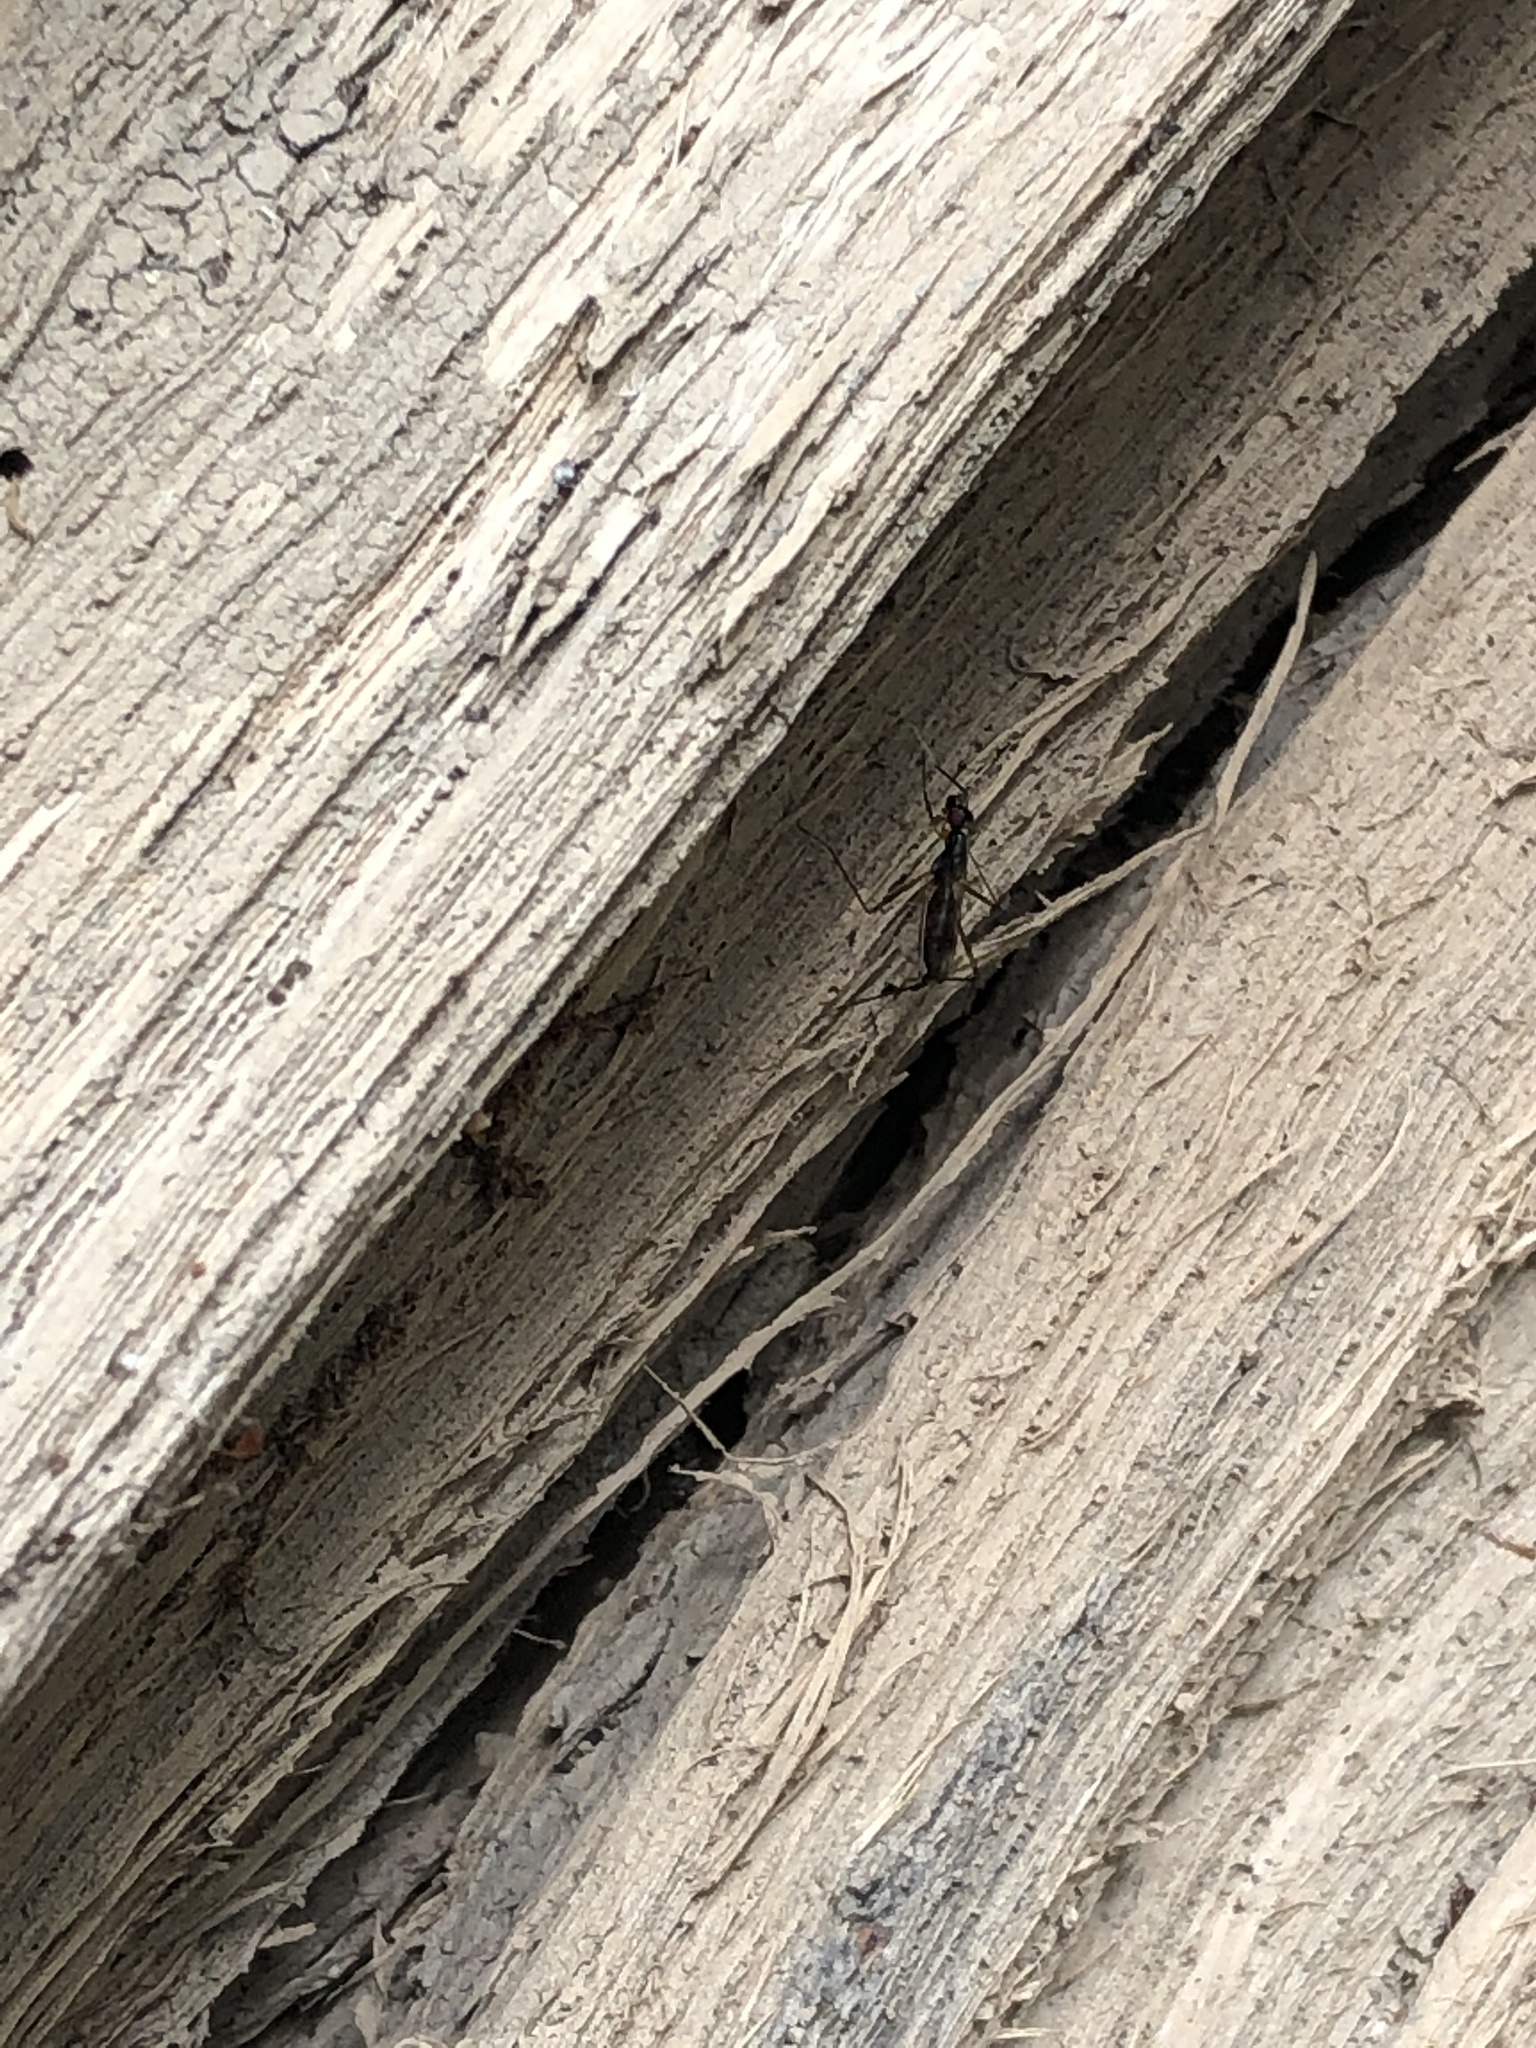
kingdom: Animalia
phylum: Arthropoda
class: Insecta
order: Diptera
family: Micropezidae
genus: Rainieria
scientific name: Rainieria antennaepes
